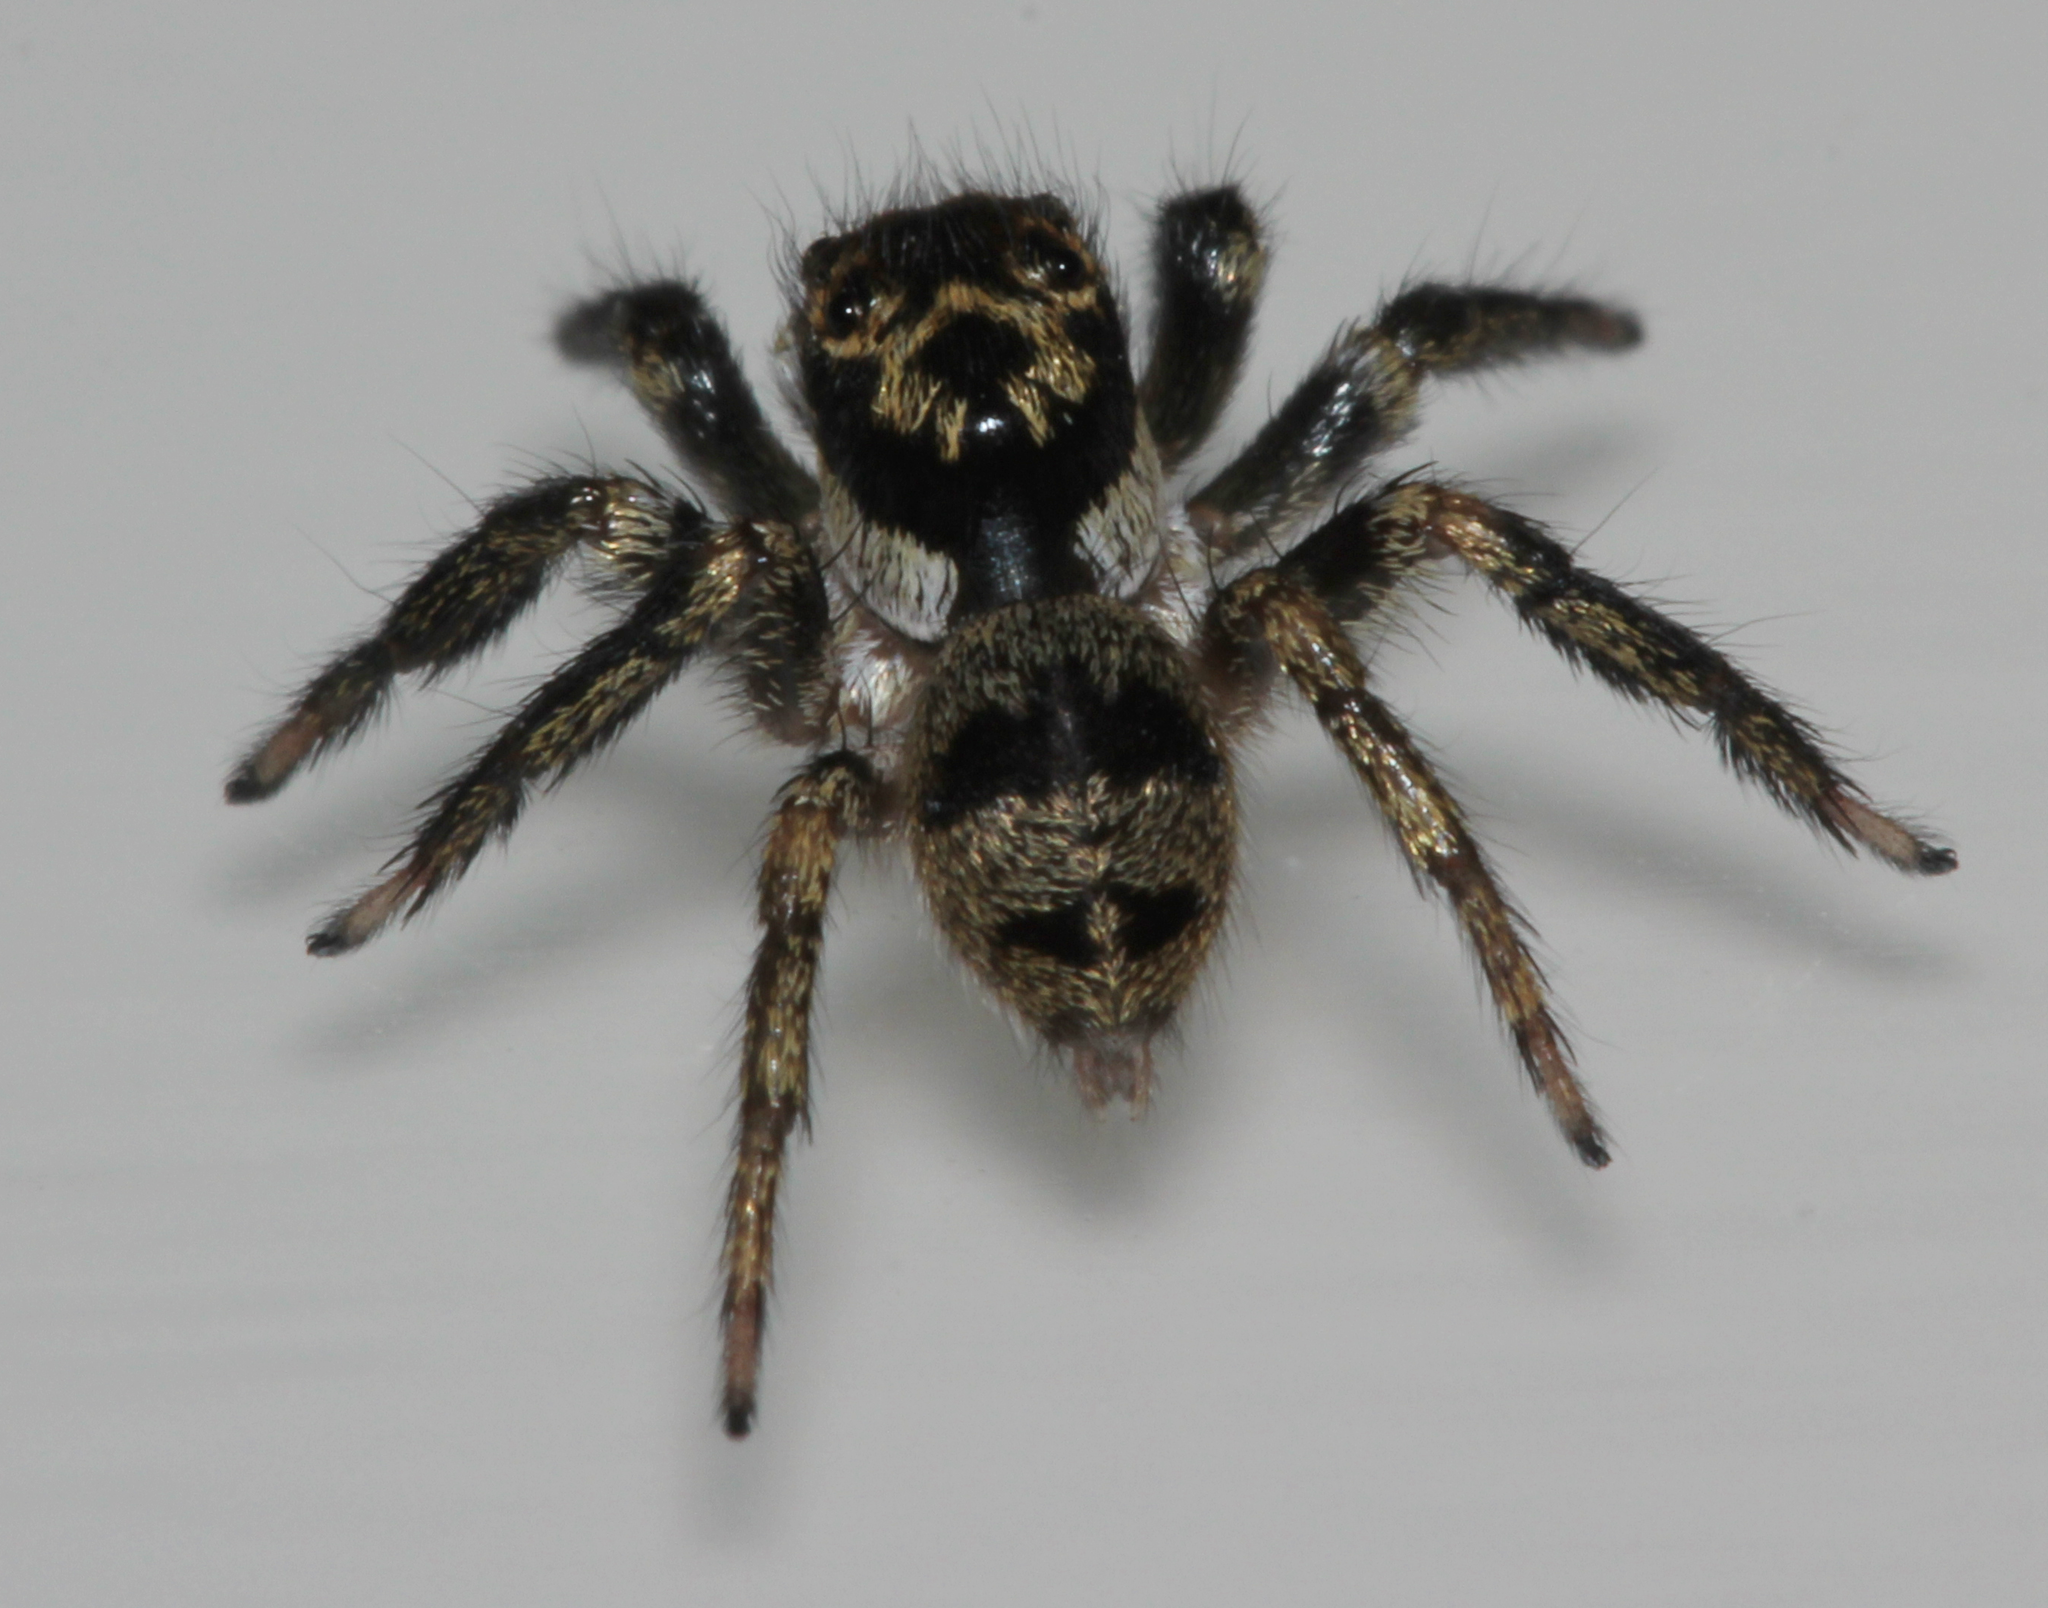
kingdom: Animalia
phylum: Arthropoda
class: Arachnida
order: Araneae
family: Salticidae
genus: Corythalia
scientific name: Corythalia conferta
